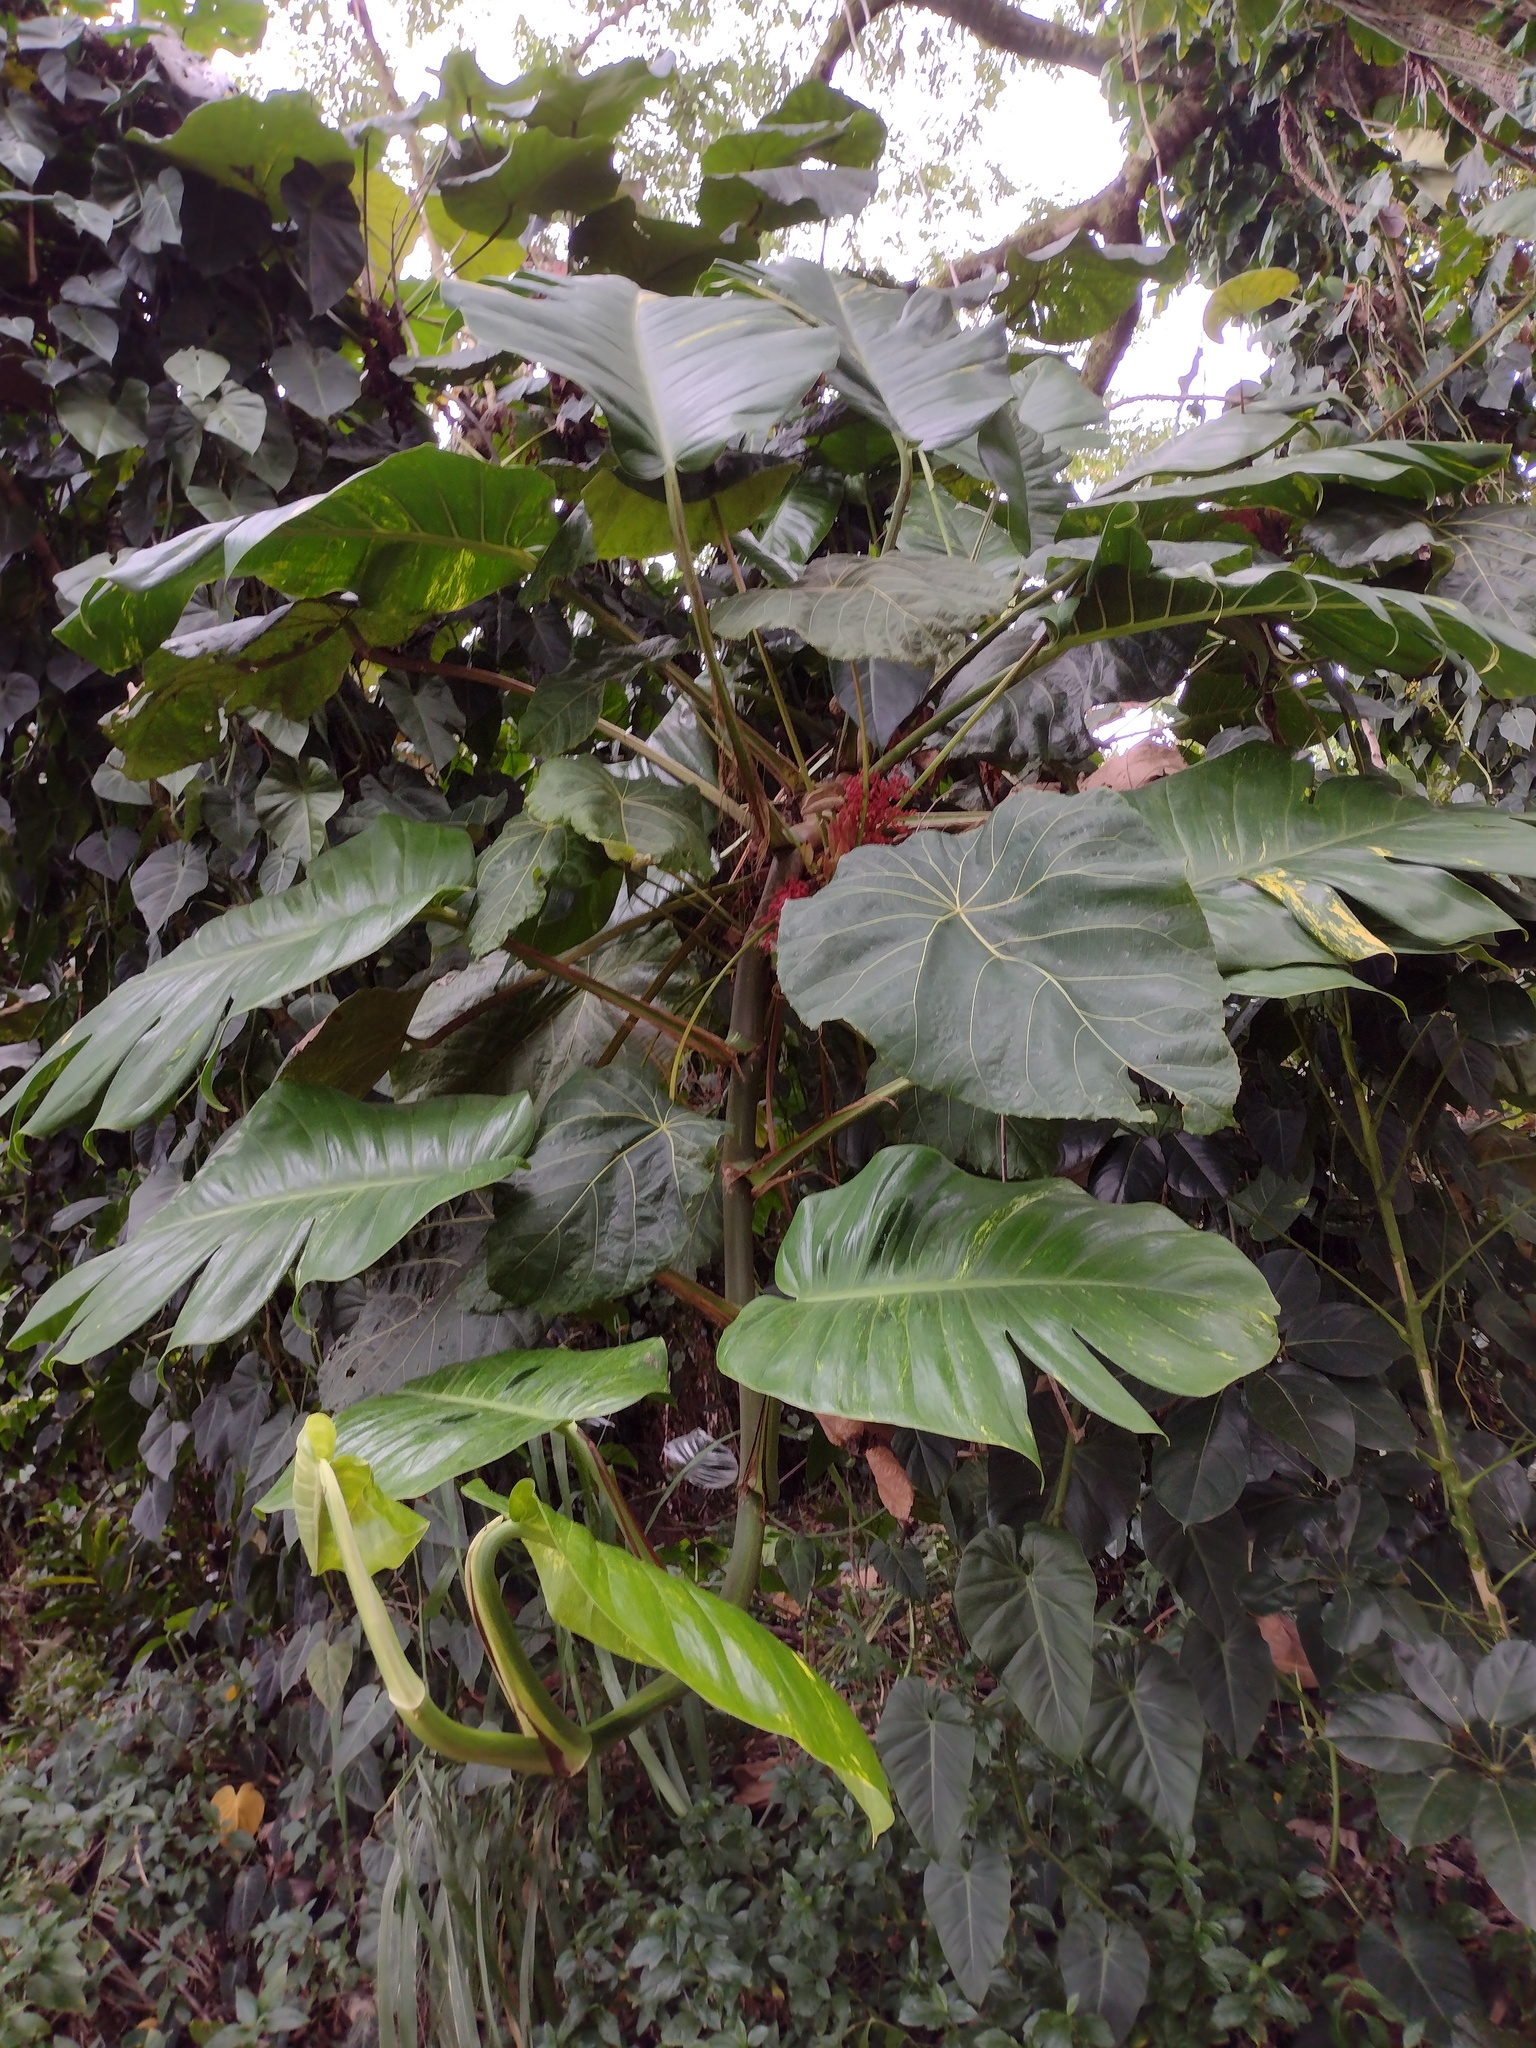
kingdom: Plantae
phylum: Tracheophyta
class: Magnoliopsida
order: Malpighiales
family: Euphorbiaceae
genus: Macaranga
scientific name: Macaranga mappa
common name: Pengua
